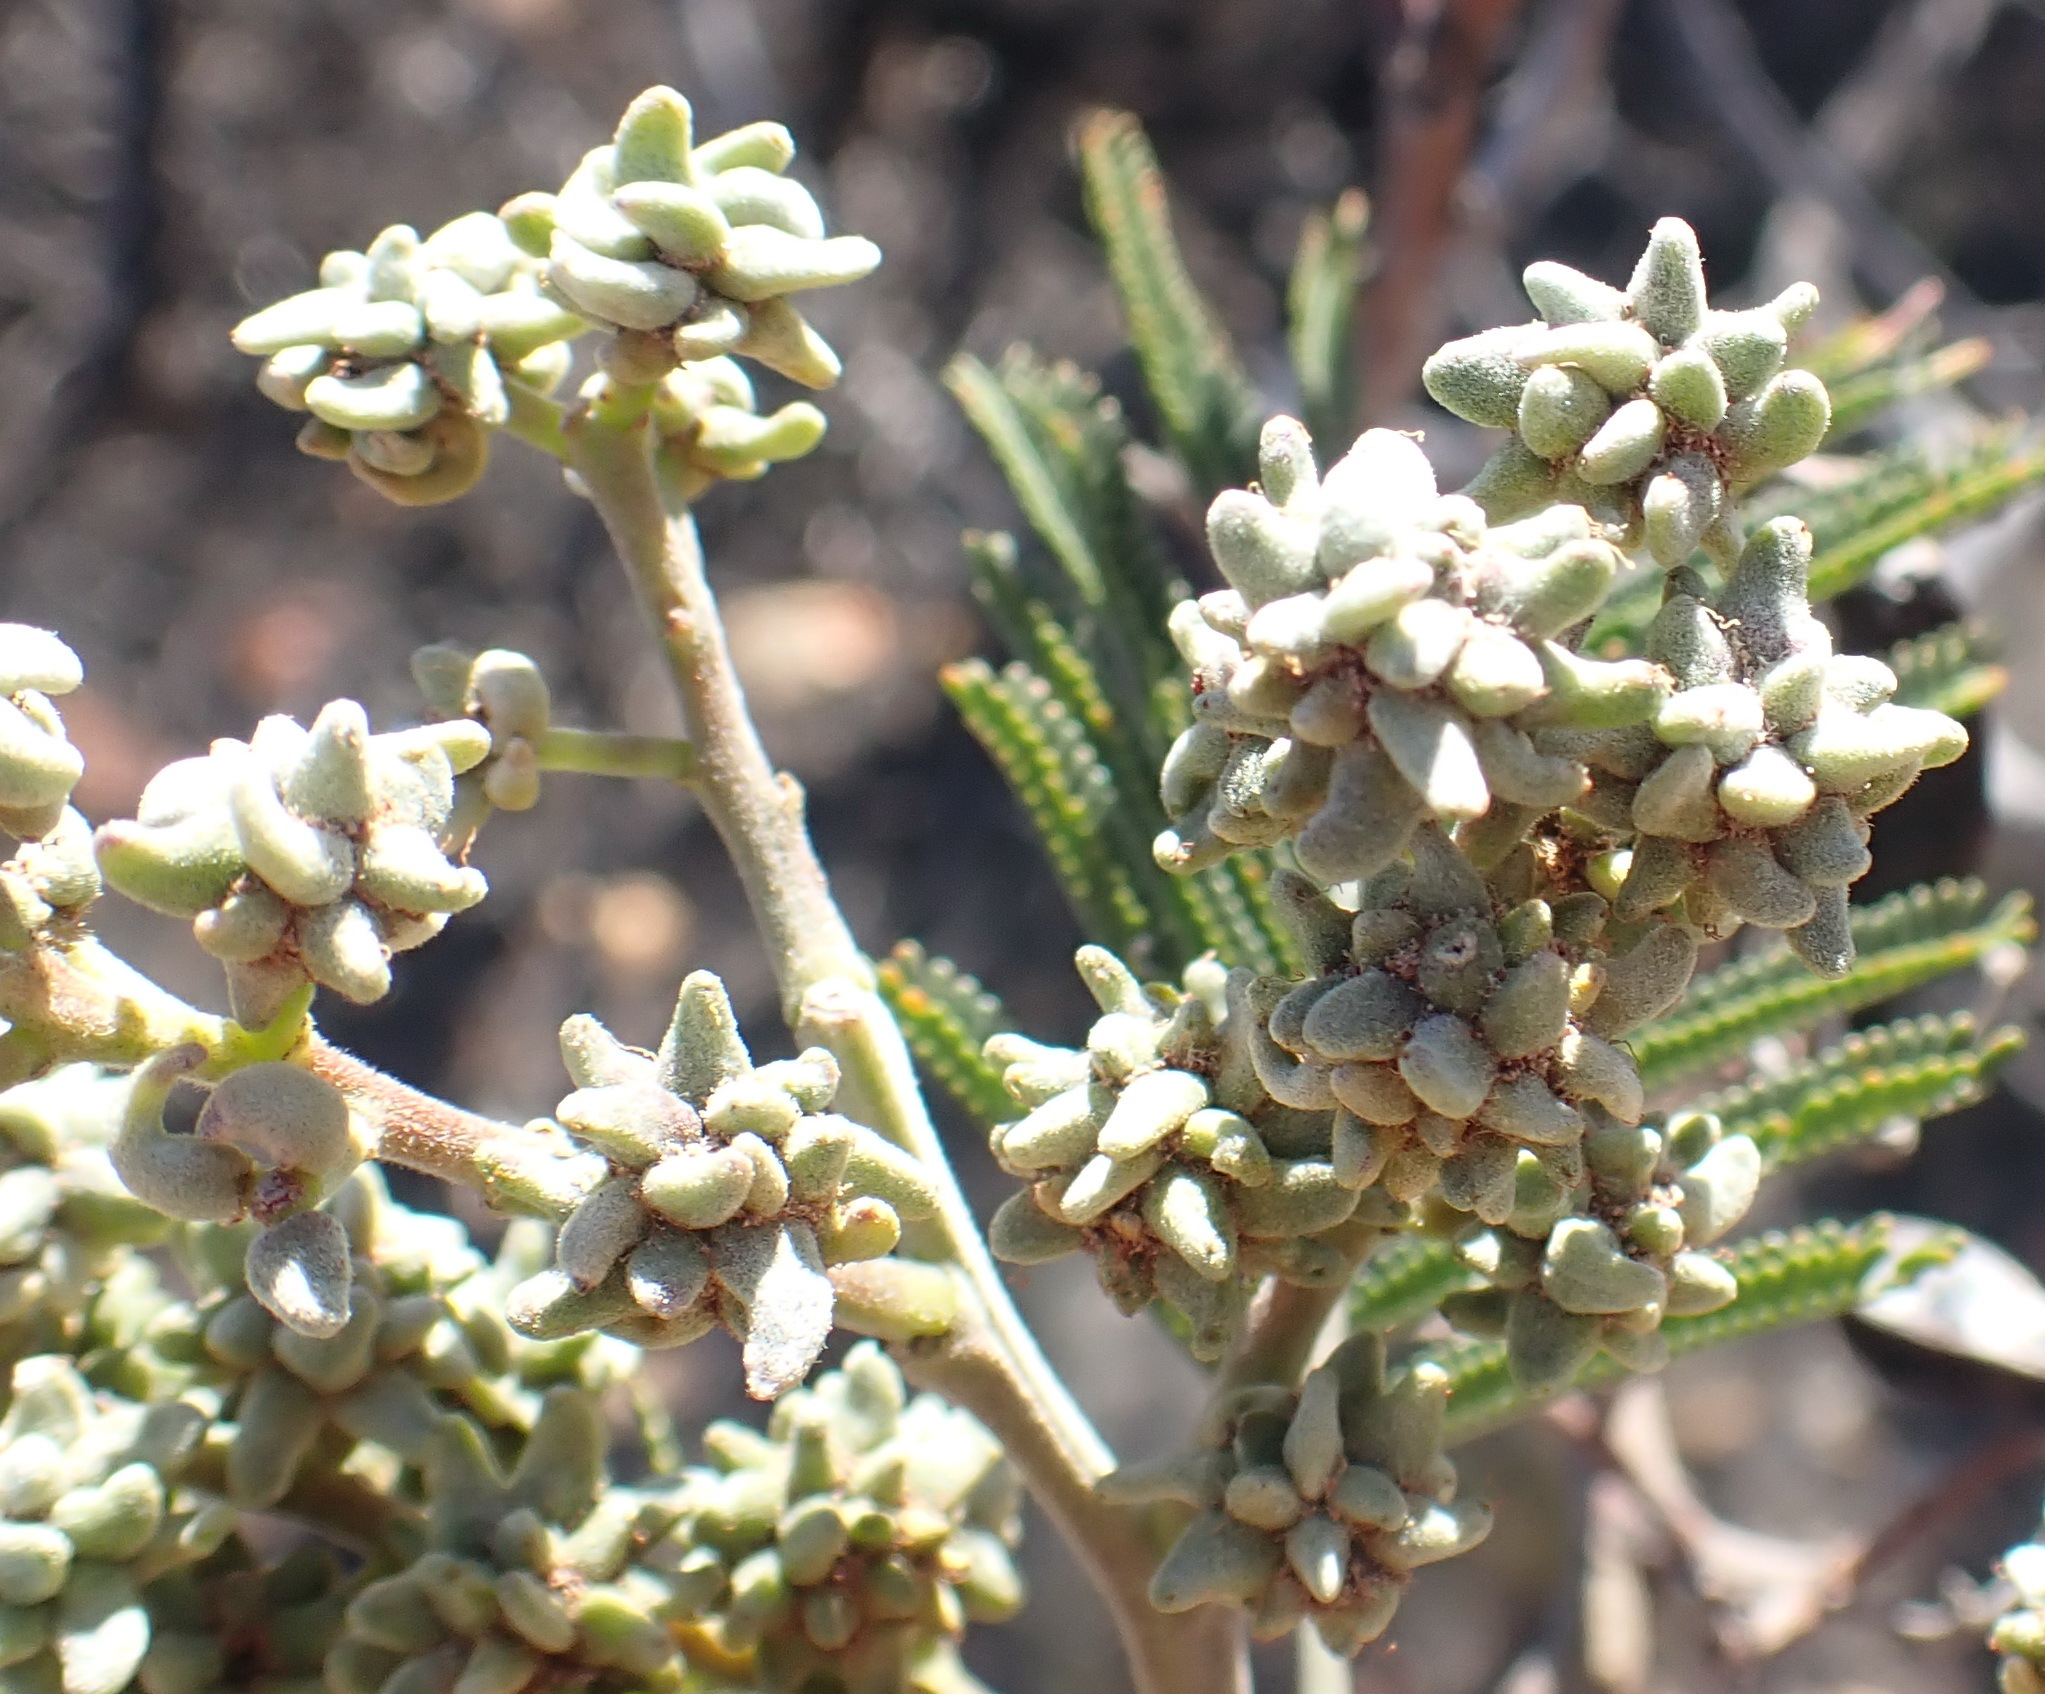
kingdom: Animalia
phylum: Arthropoda
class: Insecta
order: Diptera
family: Cecidomyiidae
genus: Dasineura
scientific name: Dasineura rubiformis
